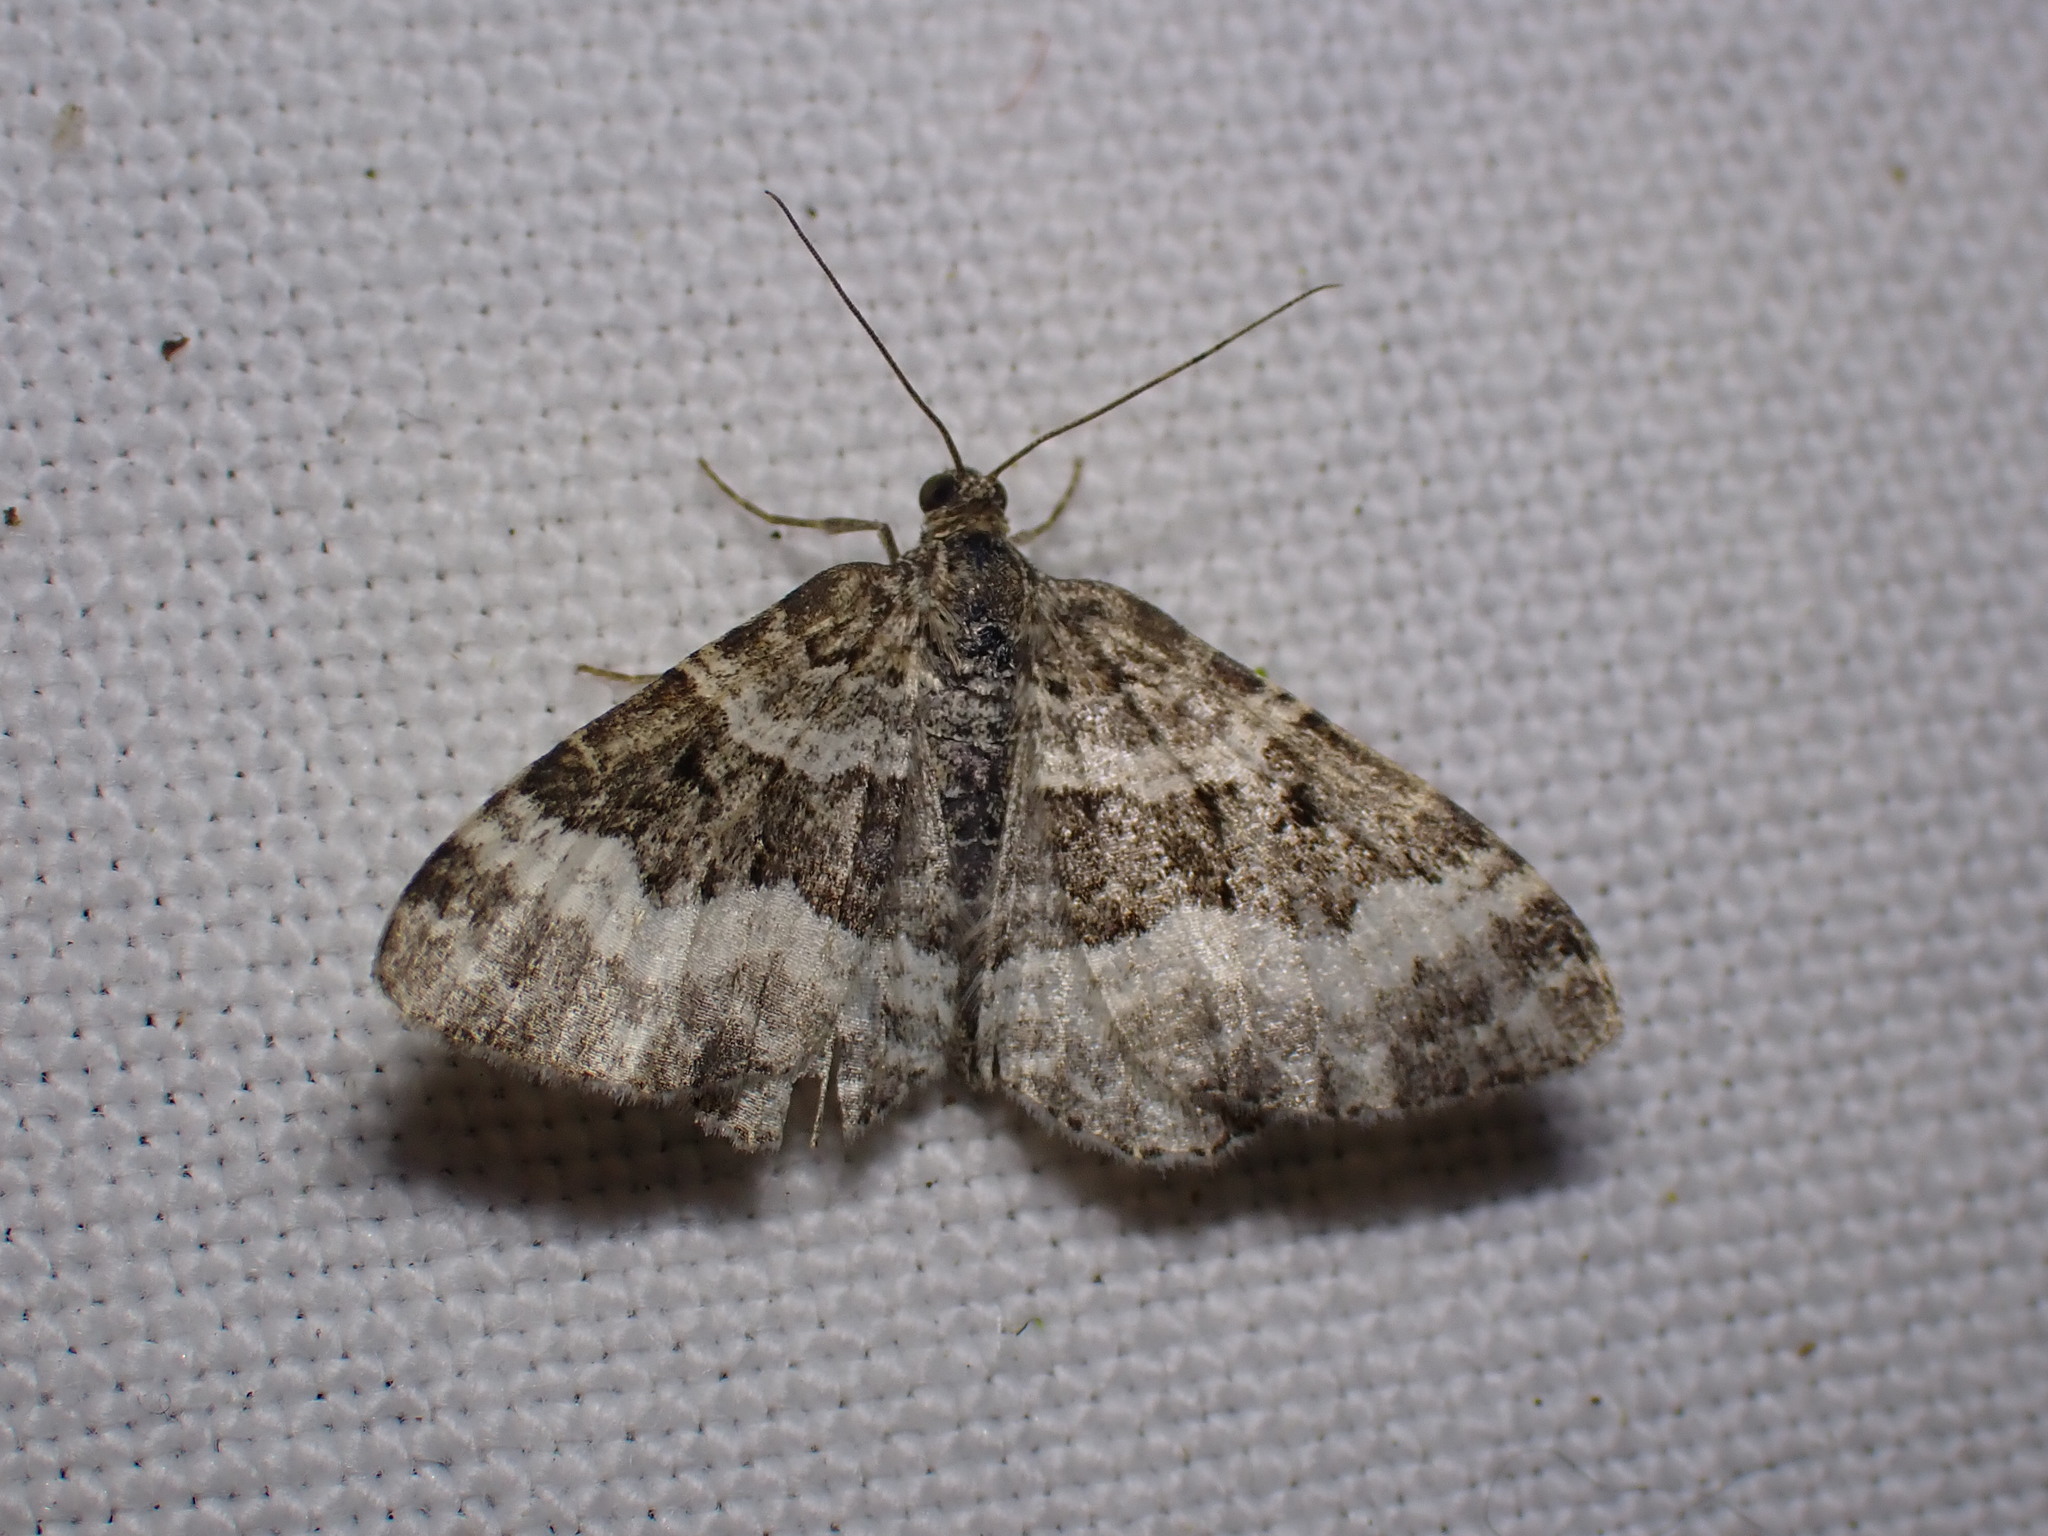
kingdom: Animalia
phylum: Arthropoda
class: Insecta
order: Lepidoptera
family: Geometridae
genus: Epirrhoe
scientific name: Epirrhoe alternata
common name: Common carpet
